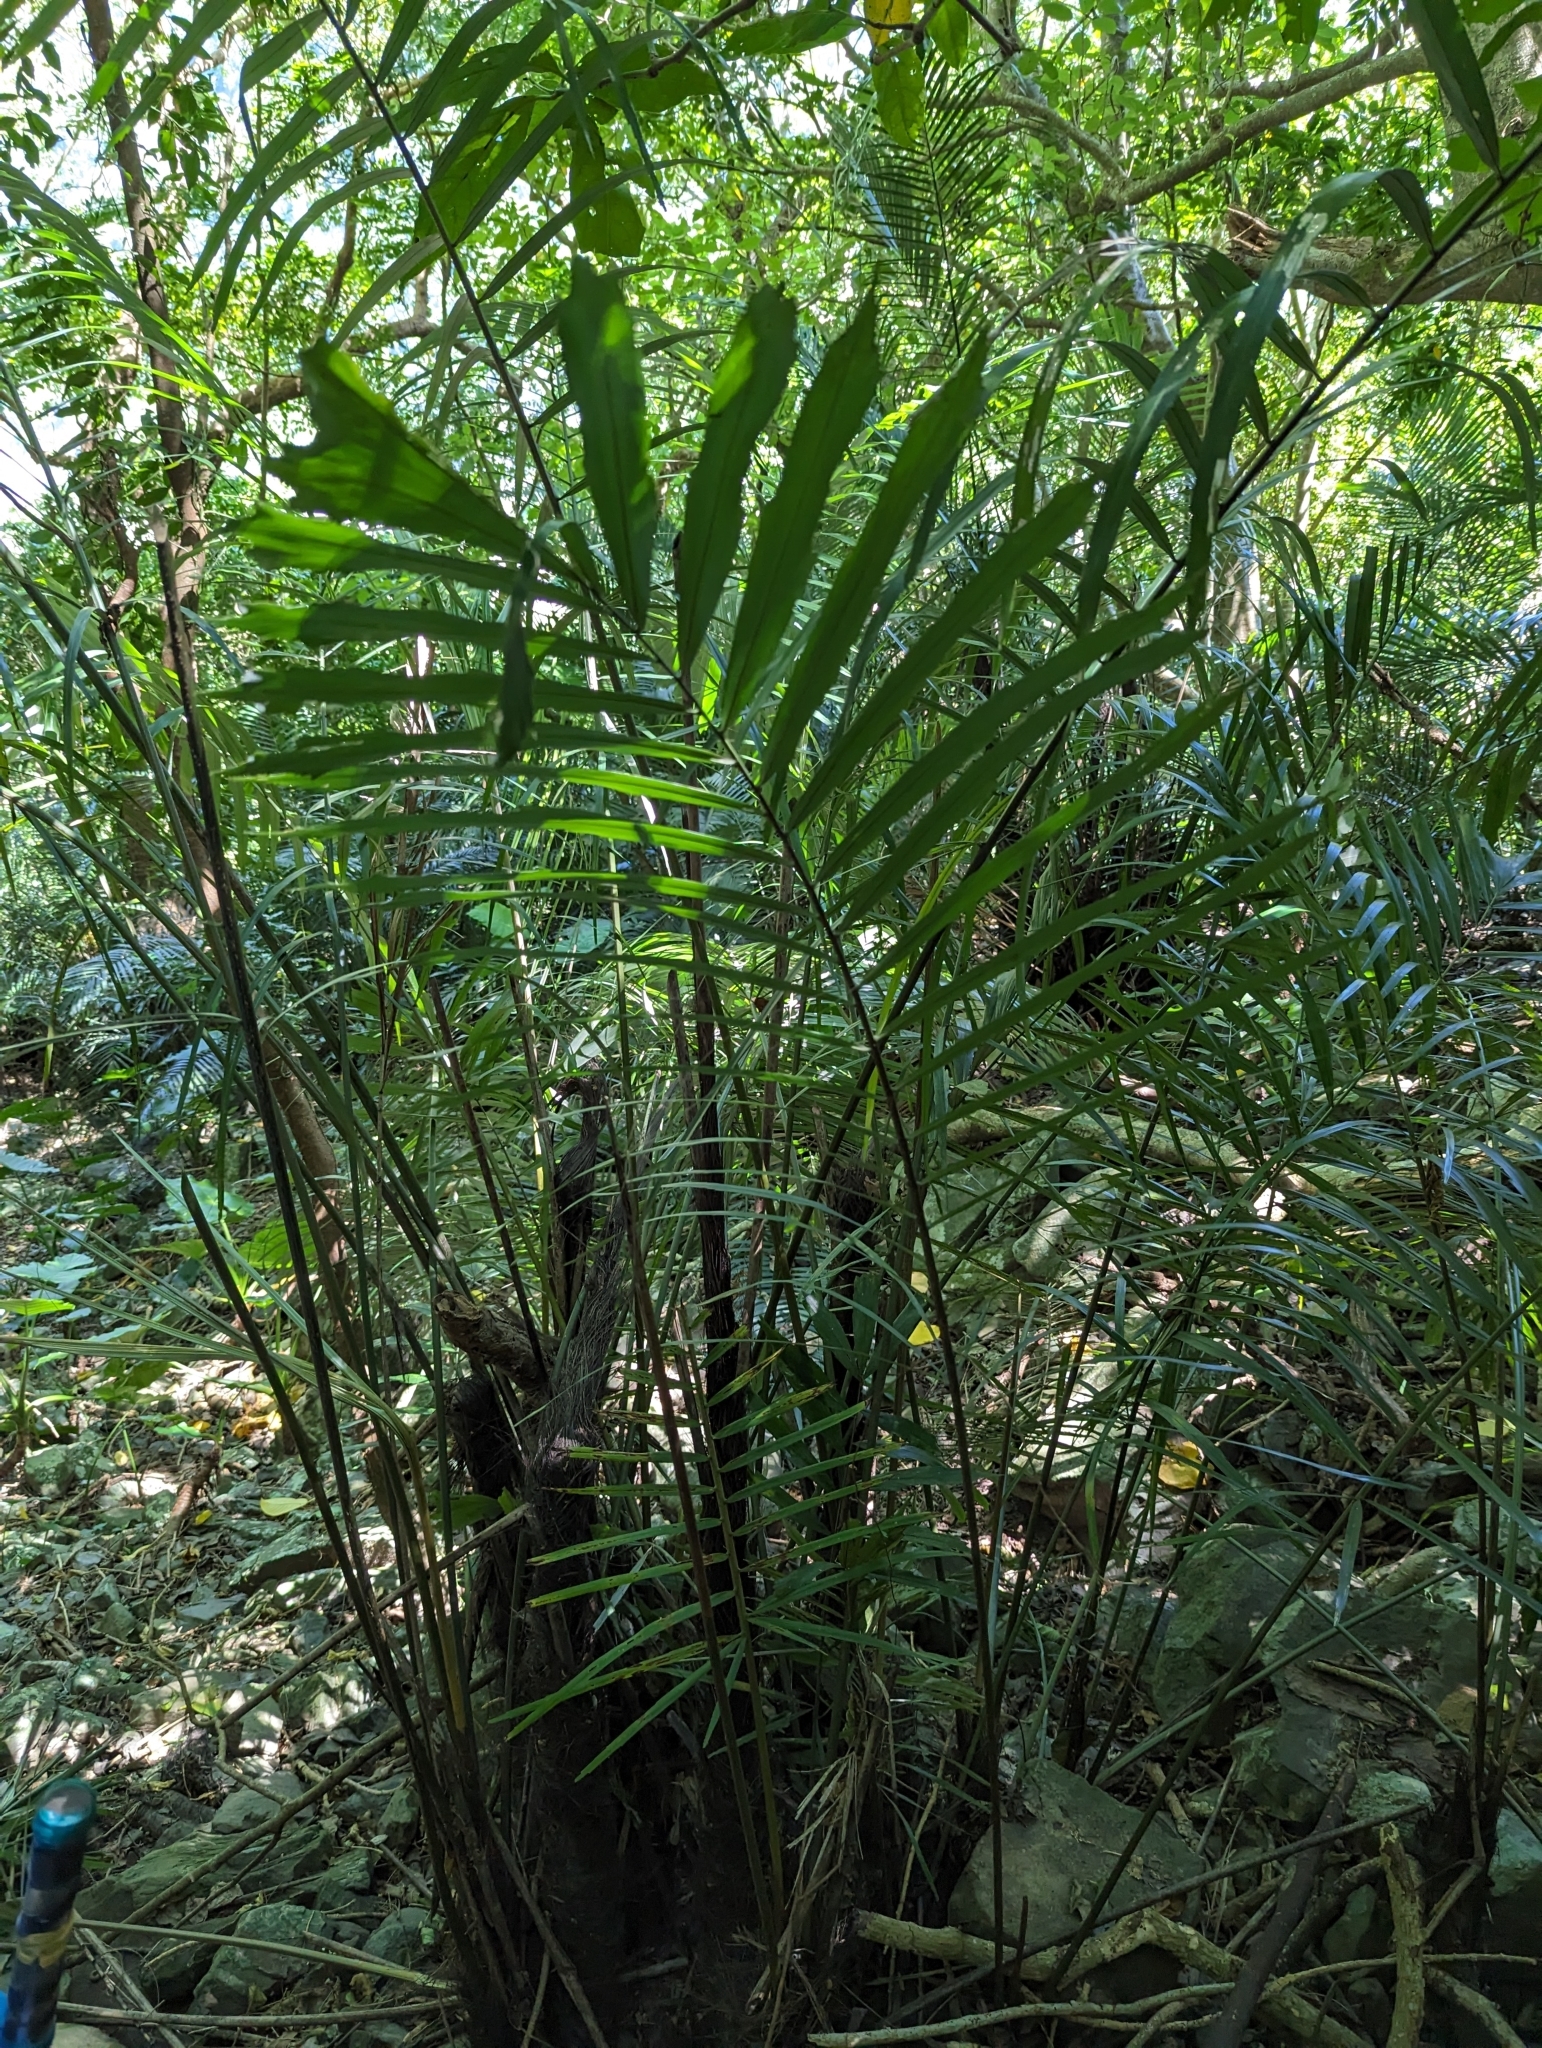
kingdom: Plantae
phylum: Tracheophyta
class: Liliopsida
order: Arecales
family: Arecaceae
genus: Arenga
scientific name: Arenga engleri
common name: Formosan sugar palm
